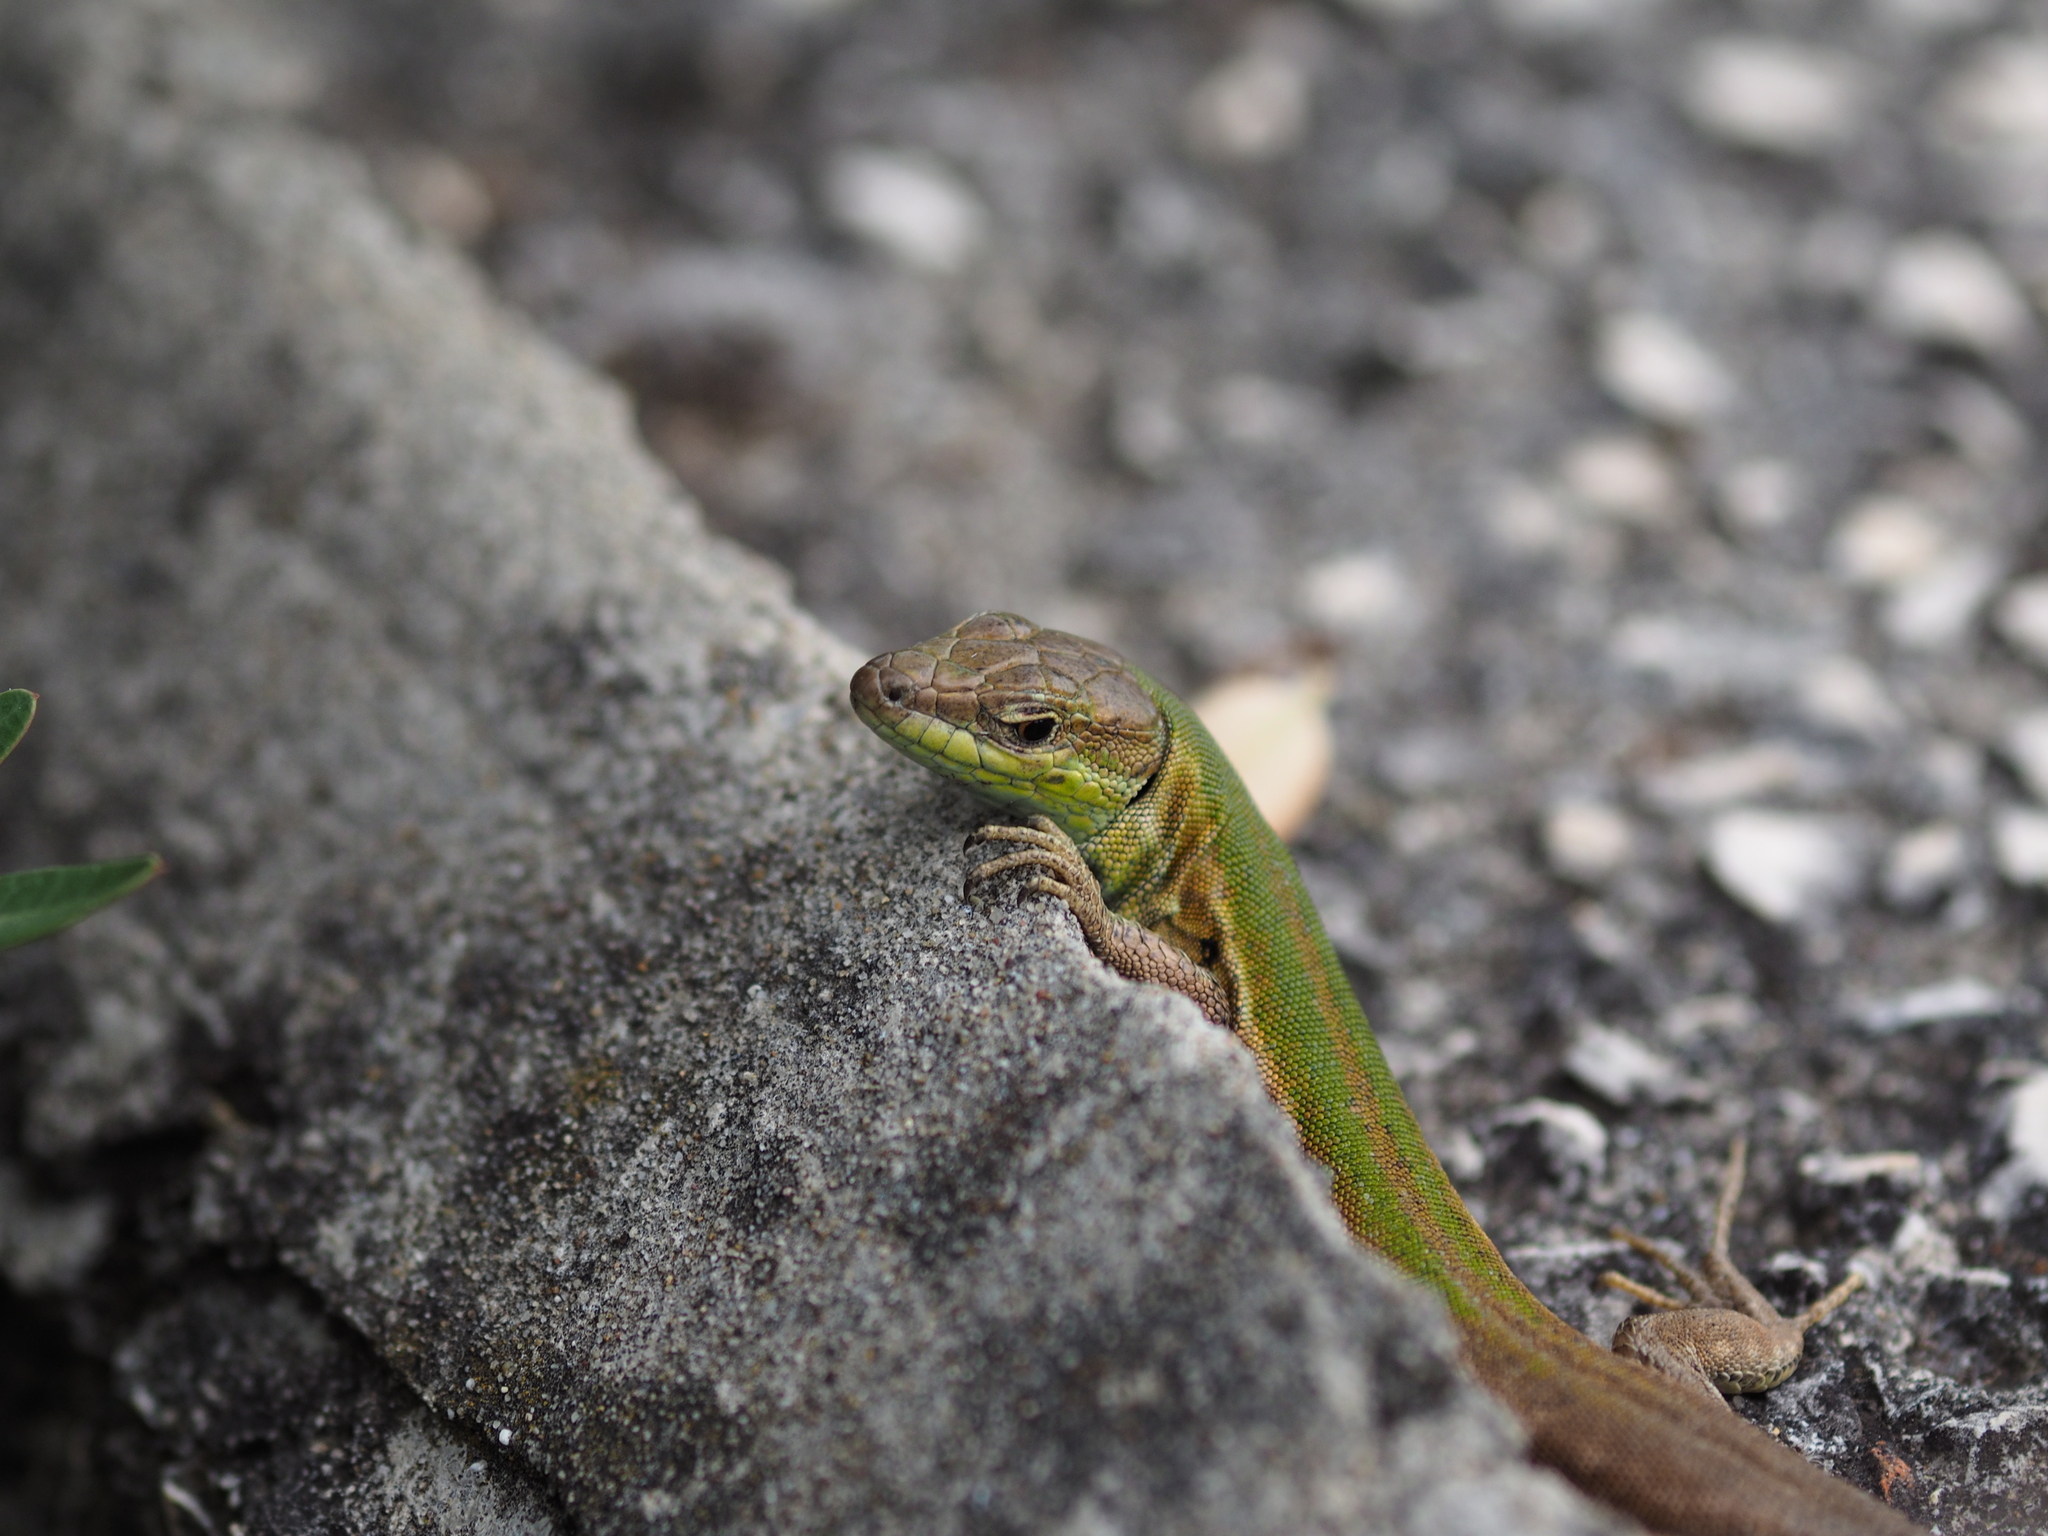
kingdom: Animalia
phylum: Chordata
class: Squamata
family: Lacertidae
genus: Podarcis
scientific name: Podarcis melisellensis
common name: Dalmatian wall lizard
